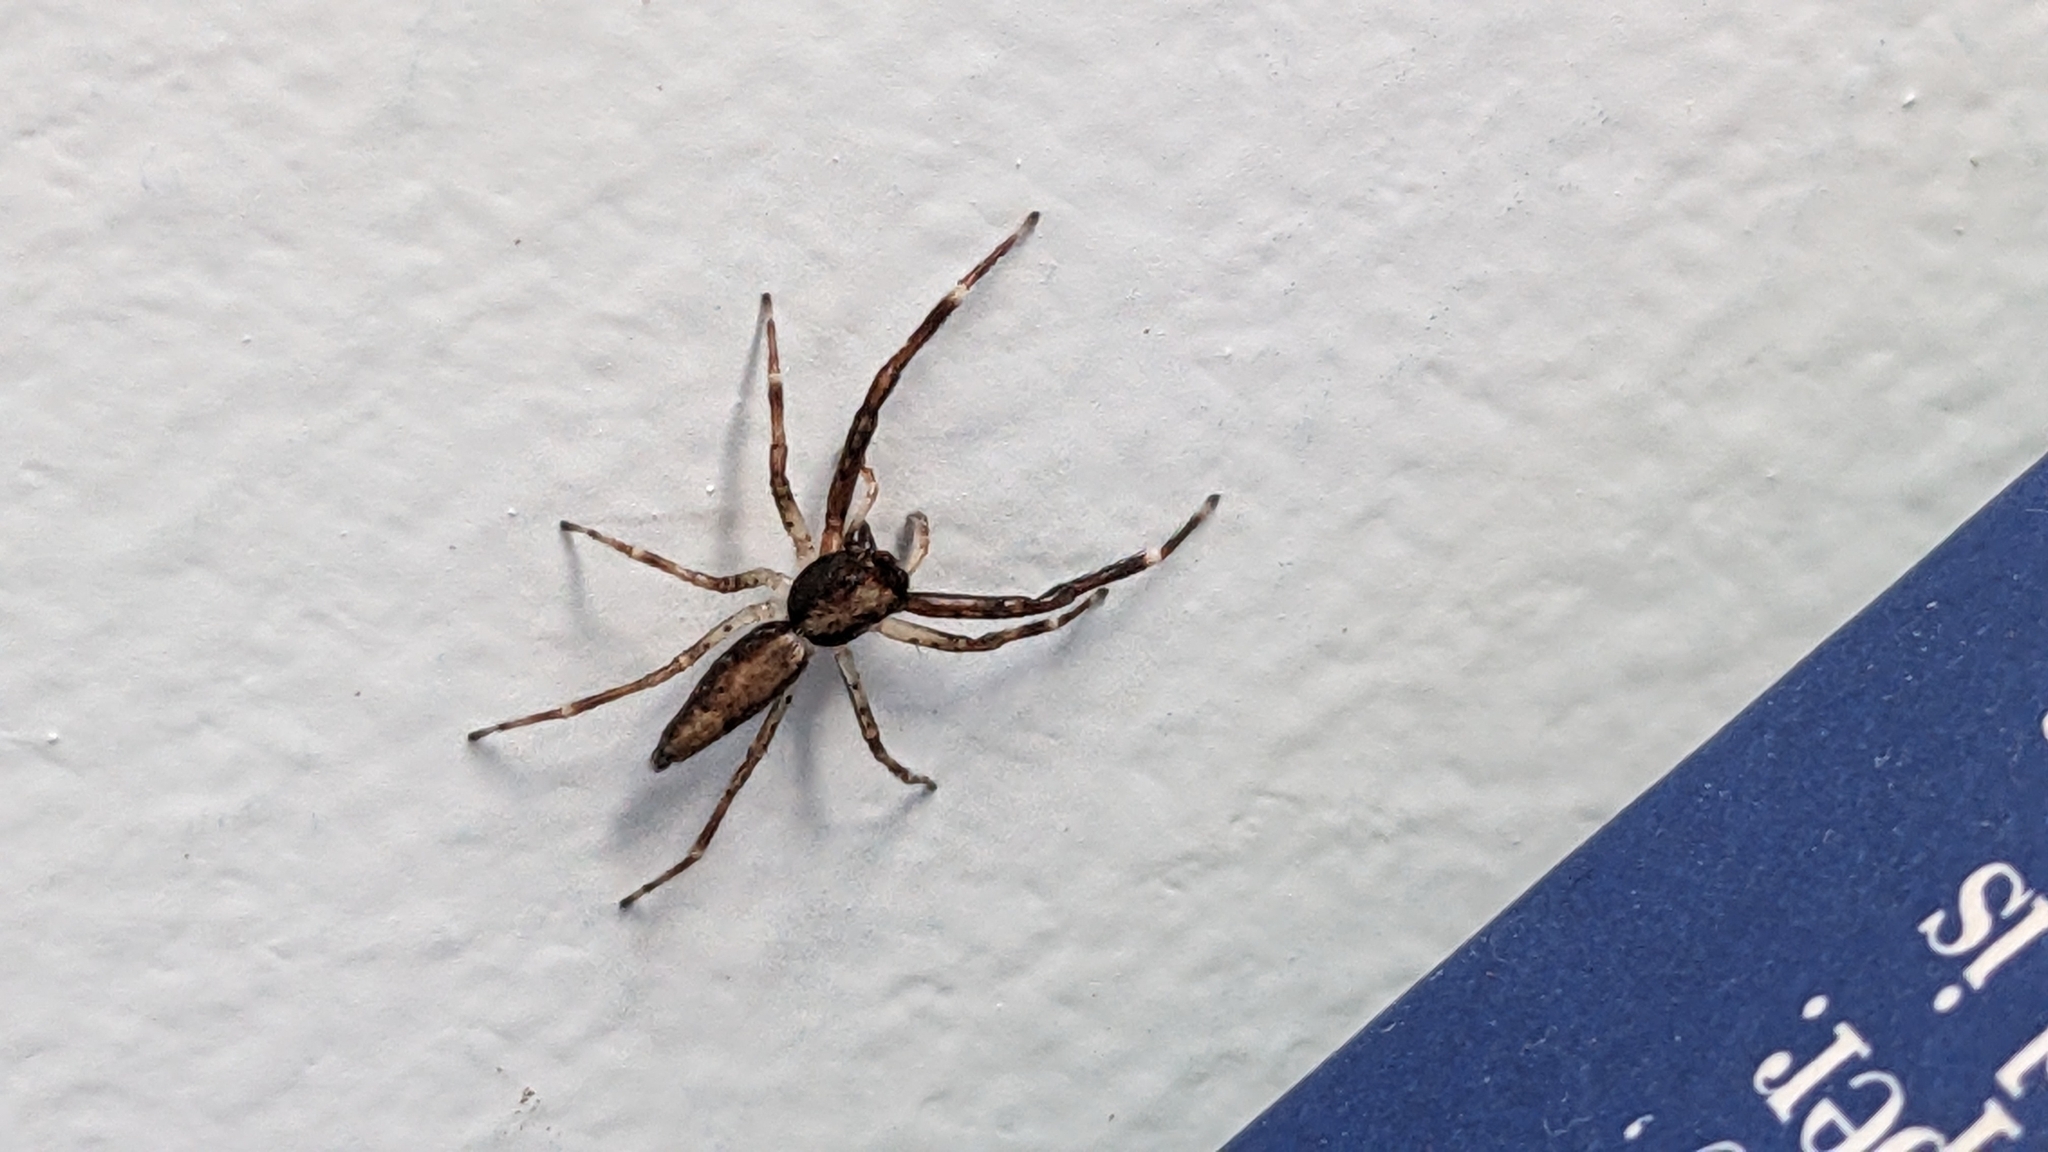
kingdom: Animalia
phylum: Arthropoda
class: Arachnida
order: Araneae
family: Salticidae
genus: Helpis
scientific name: Helpis minitabunda
